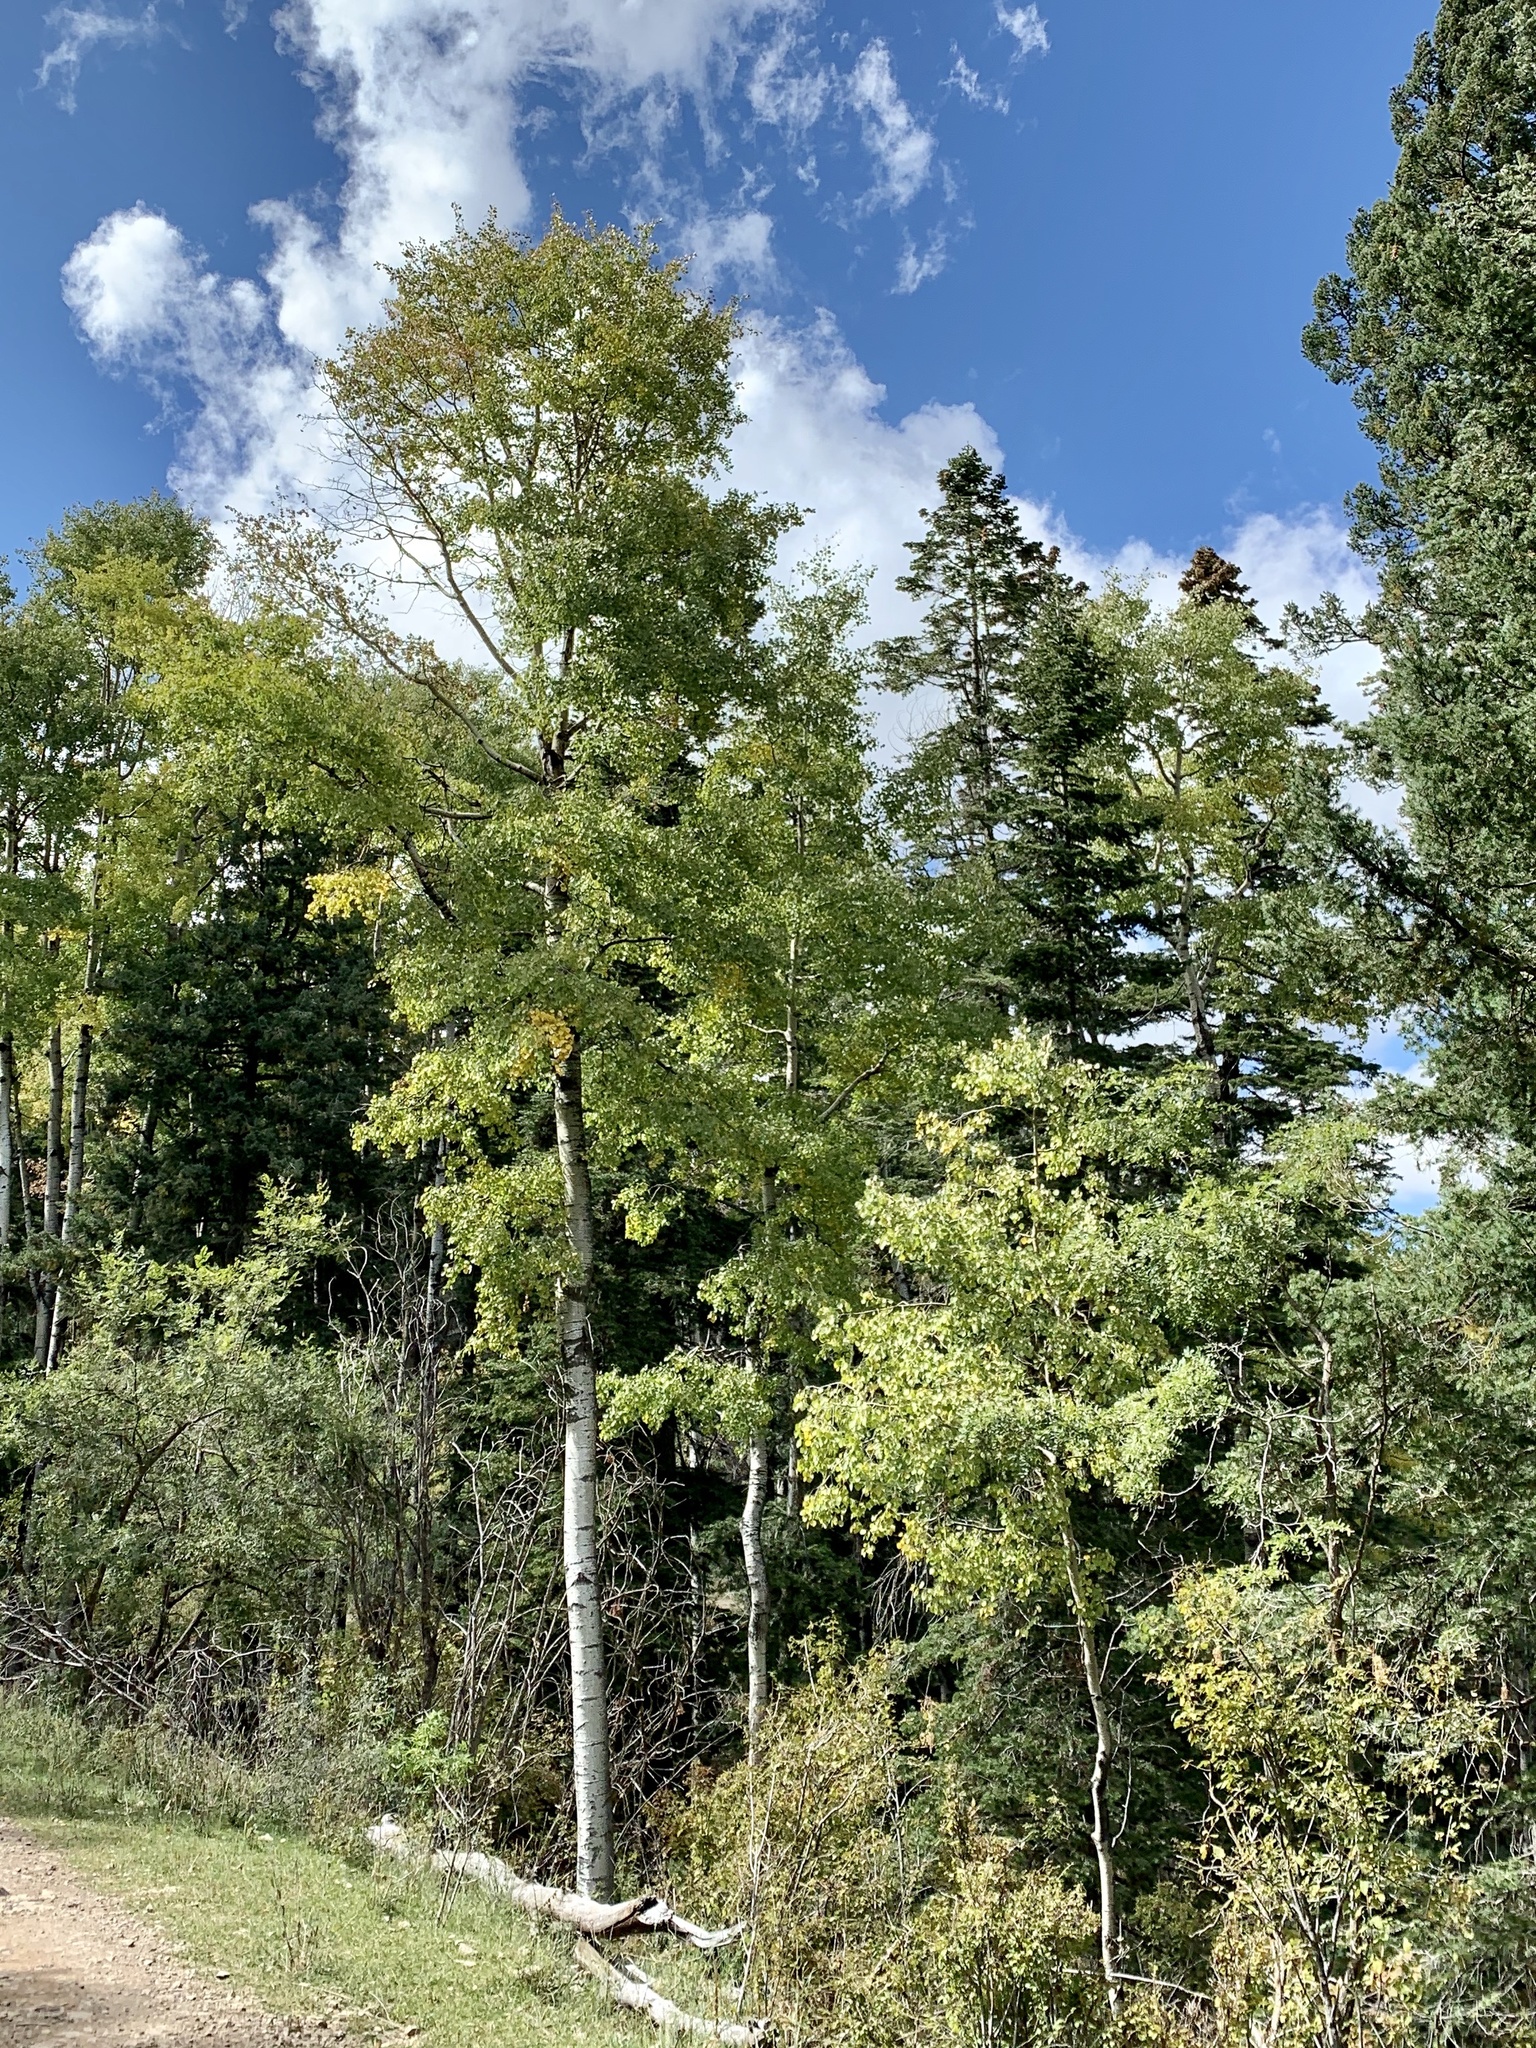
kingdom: Plantae
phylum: Tracheophyta
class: Magnoliopsida
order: Malpighiales
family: Salicaceae
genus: Populus
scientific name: Populus tremuloides
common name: Quaking aspen
